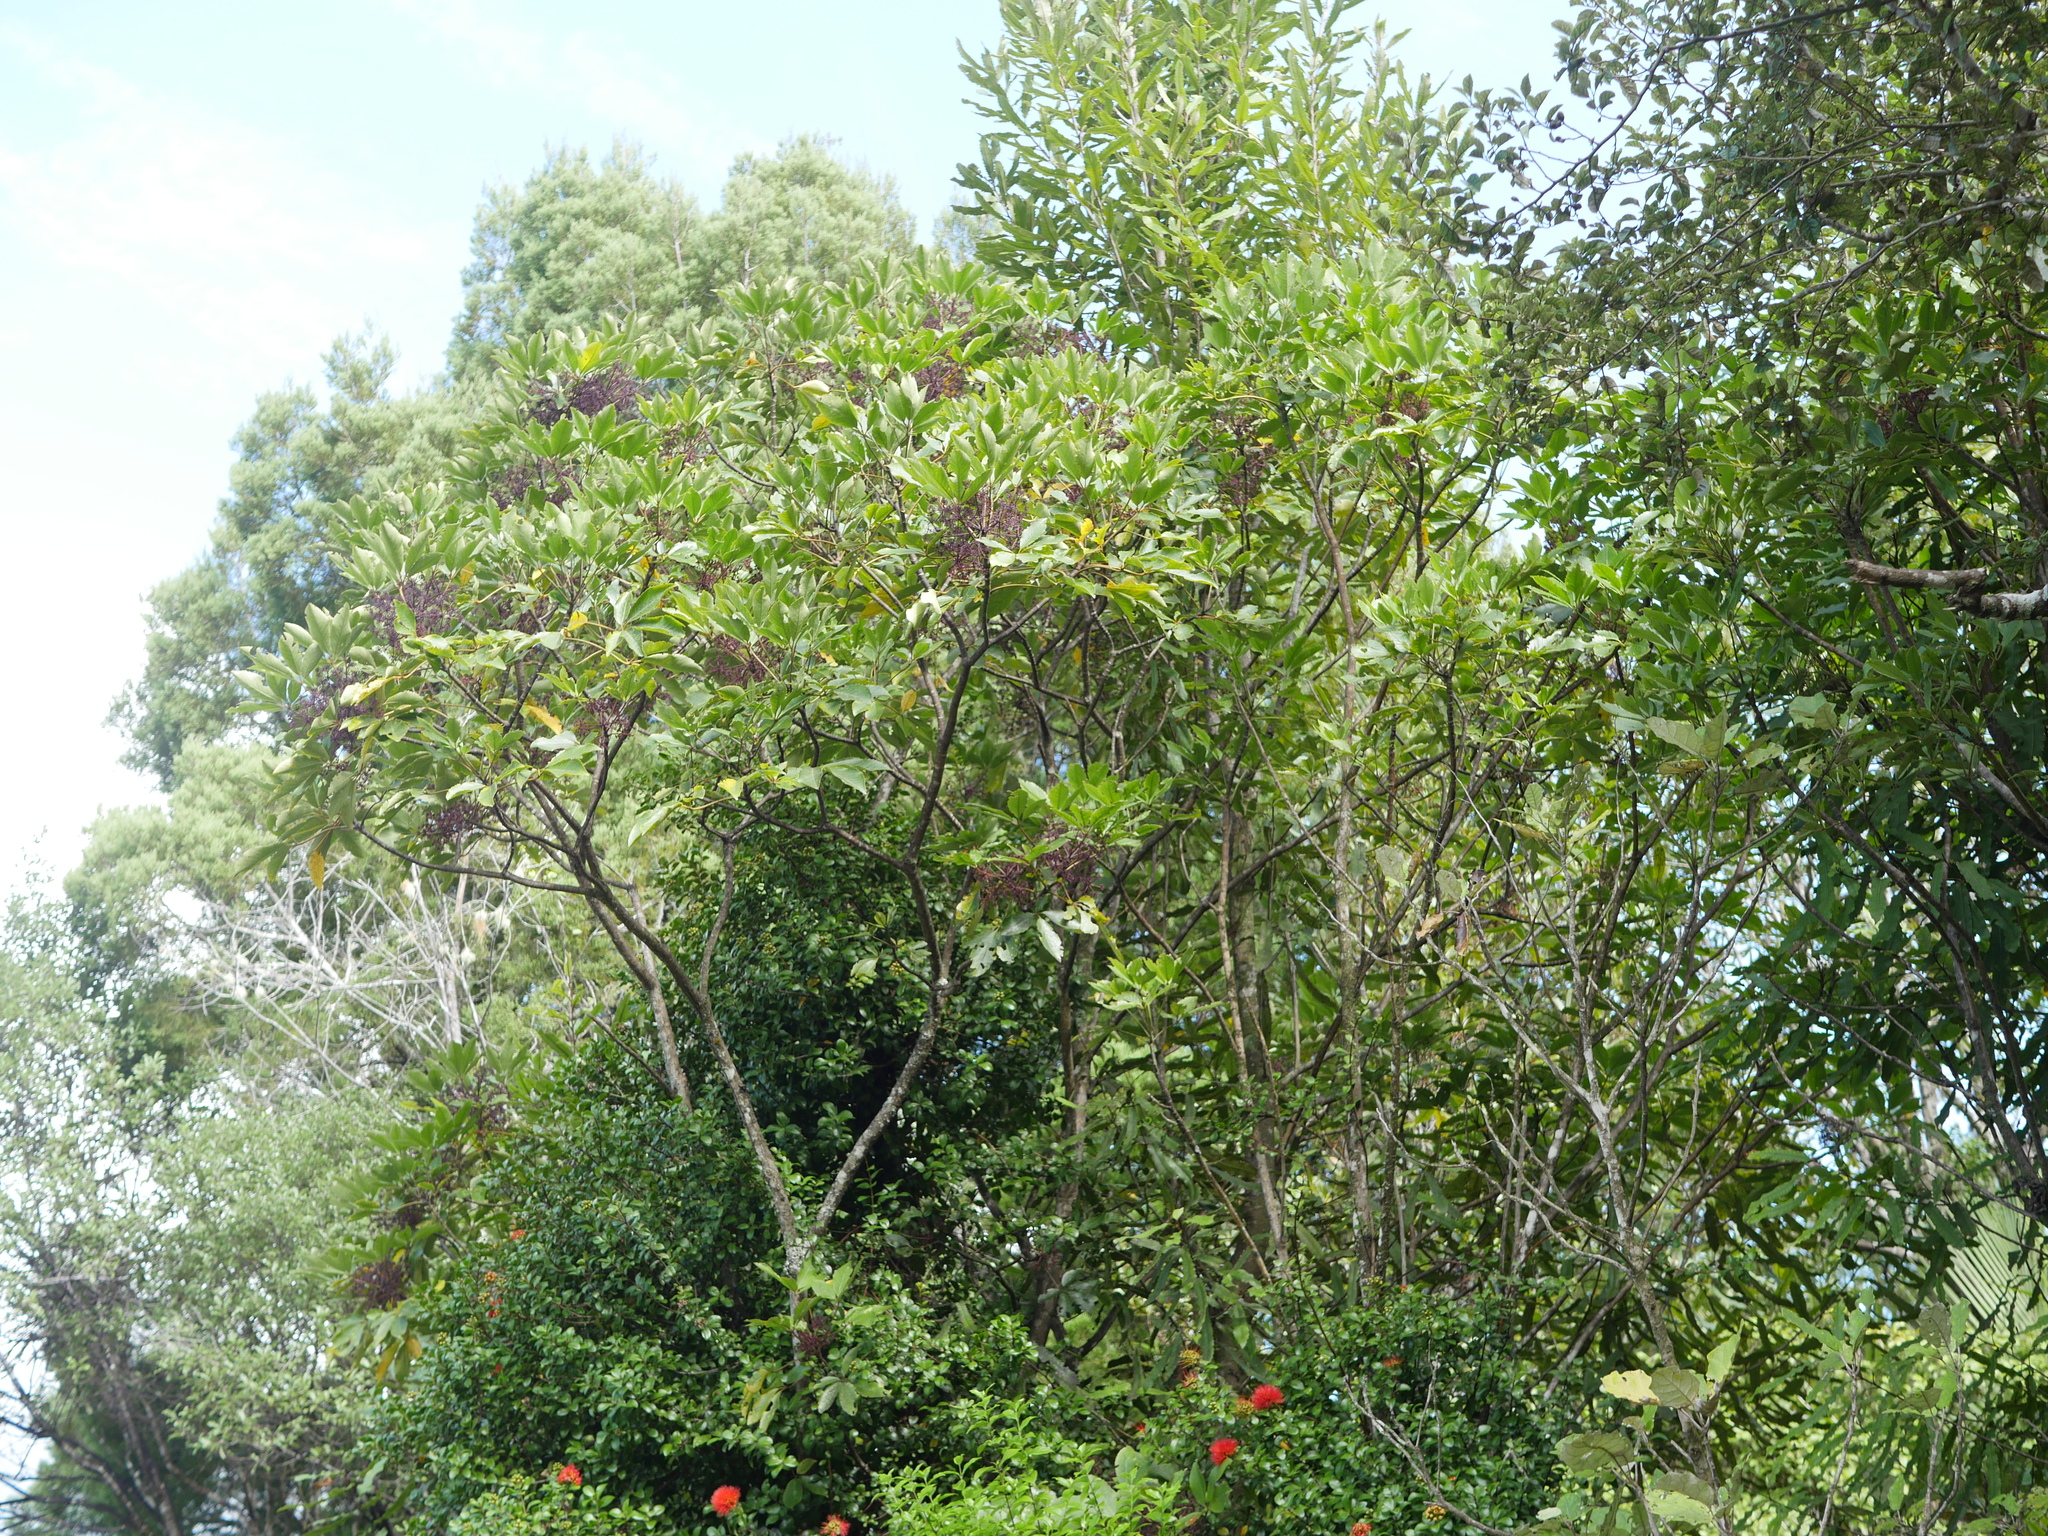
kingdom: Plantae
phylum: Tracheophyta
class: Magnoliopsida
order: Apiales
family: Araliaceae
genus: Neopanax
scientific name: Neopanax arboreus
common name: Five-fingers
